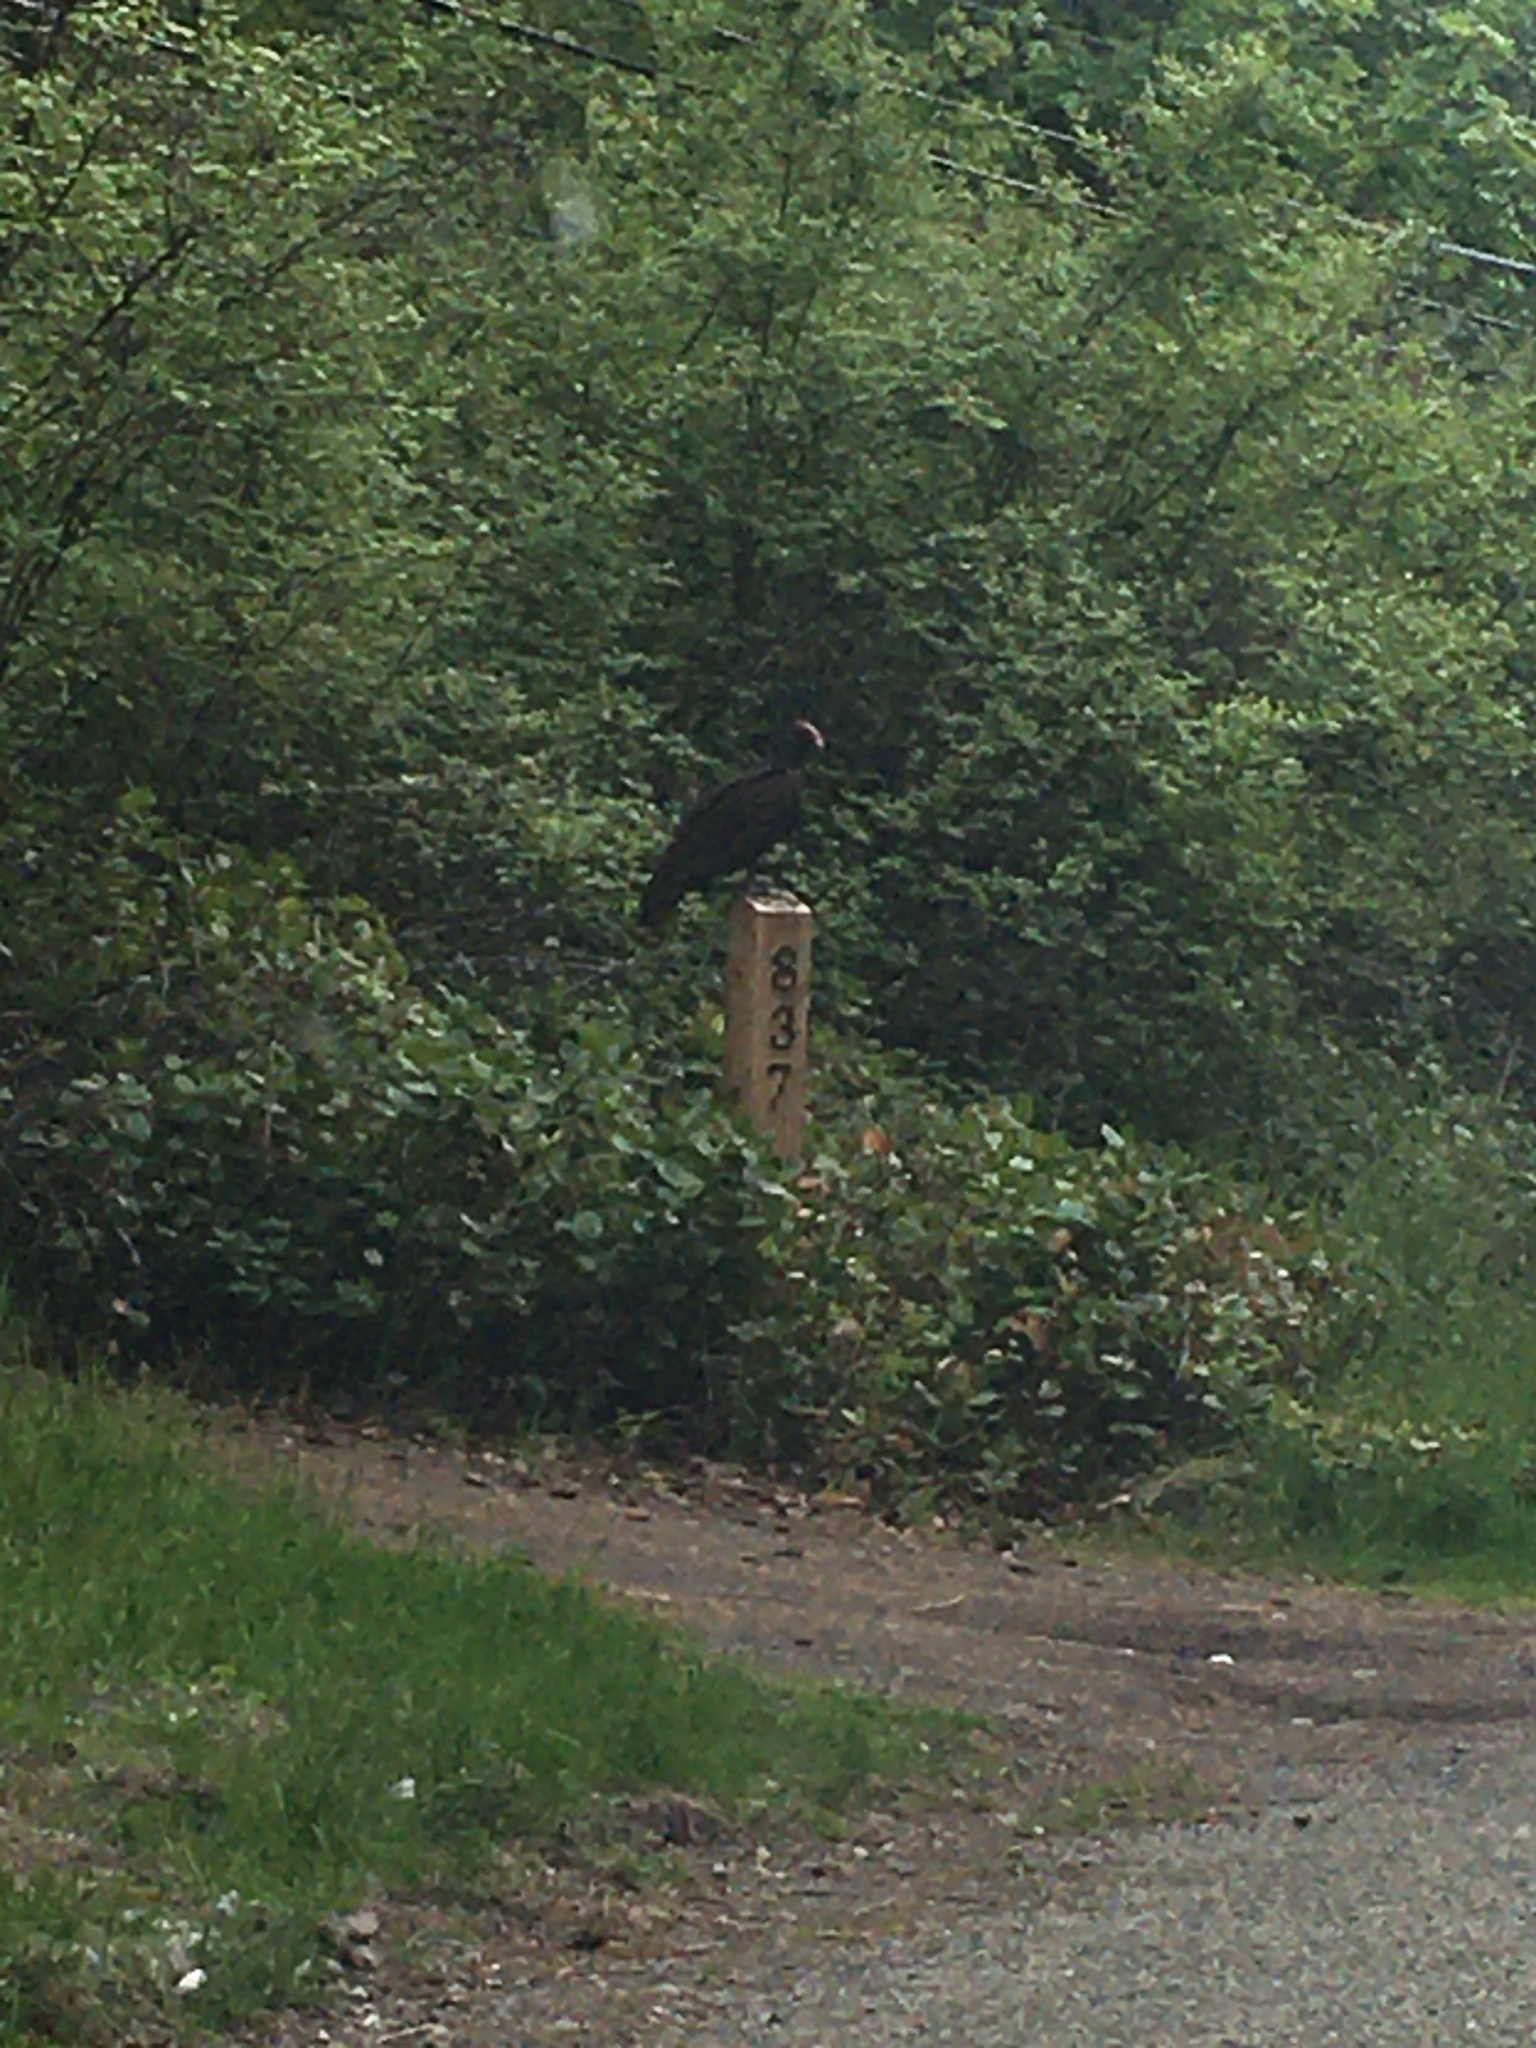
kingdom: Animalia
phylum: Chordata
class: Aves
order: Accipitriformes
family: Cathartidae
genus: Cathartes
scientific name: Cathartes aura
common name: Turkey vulture
